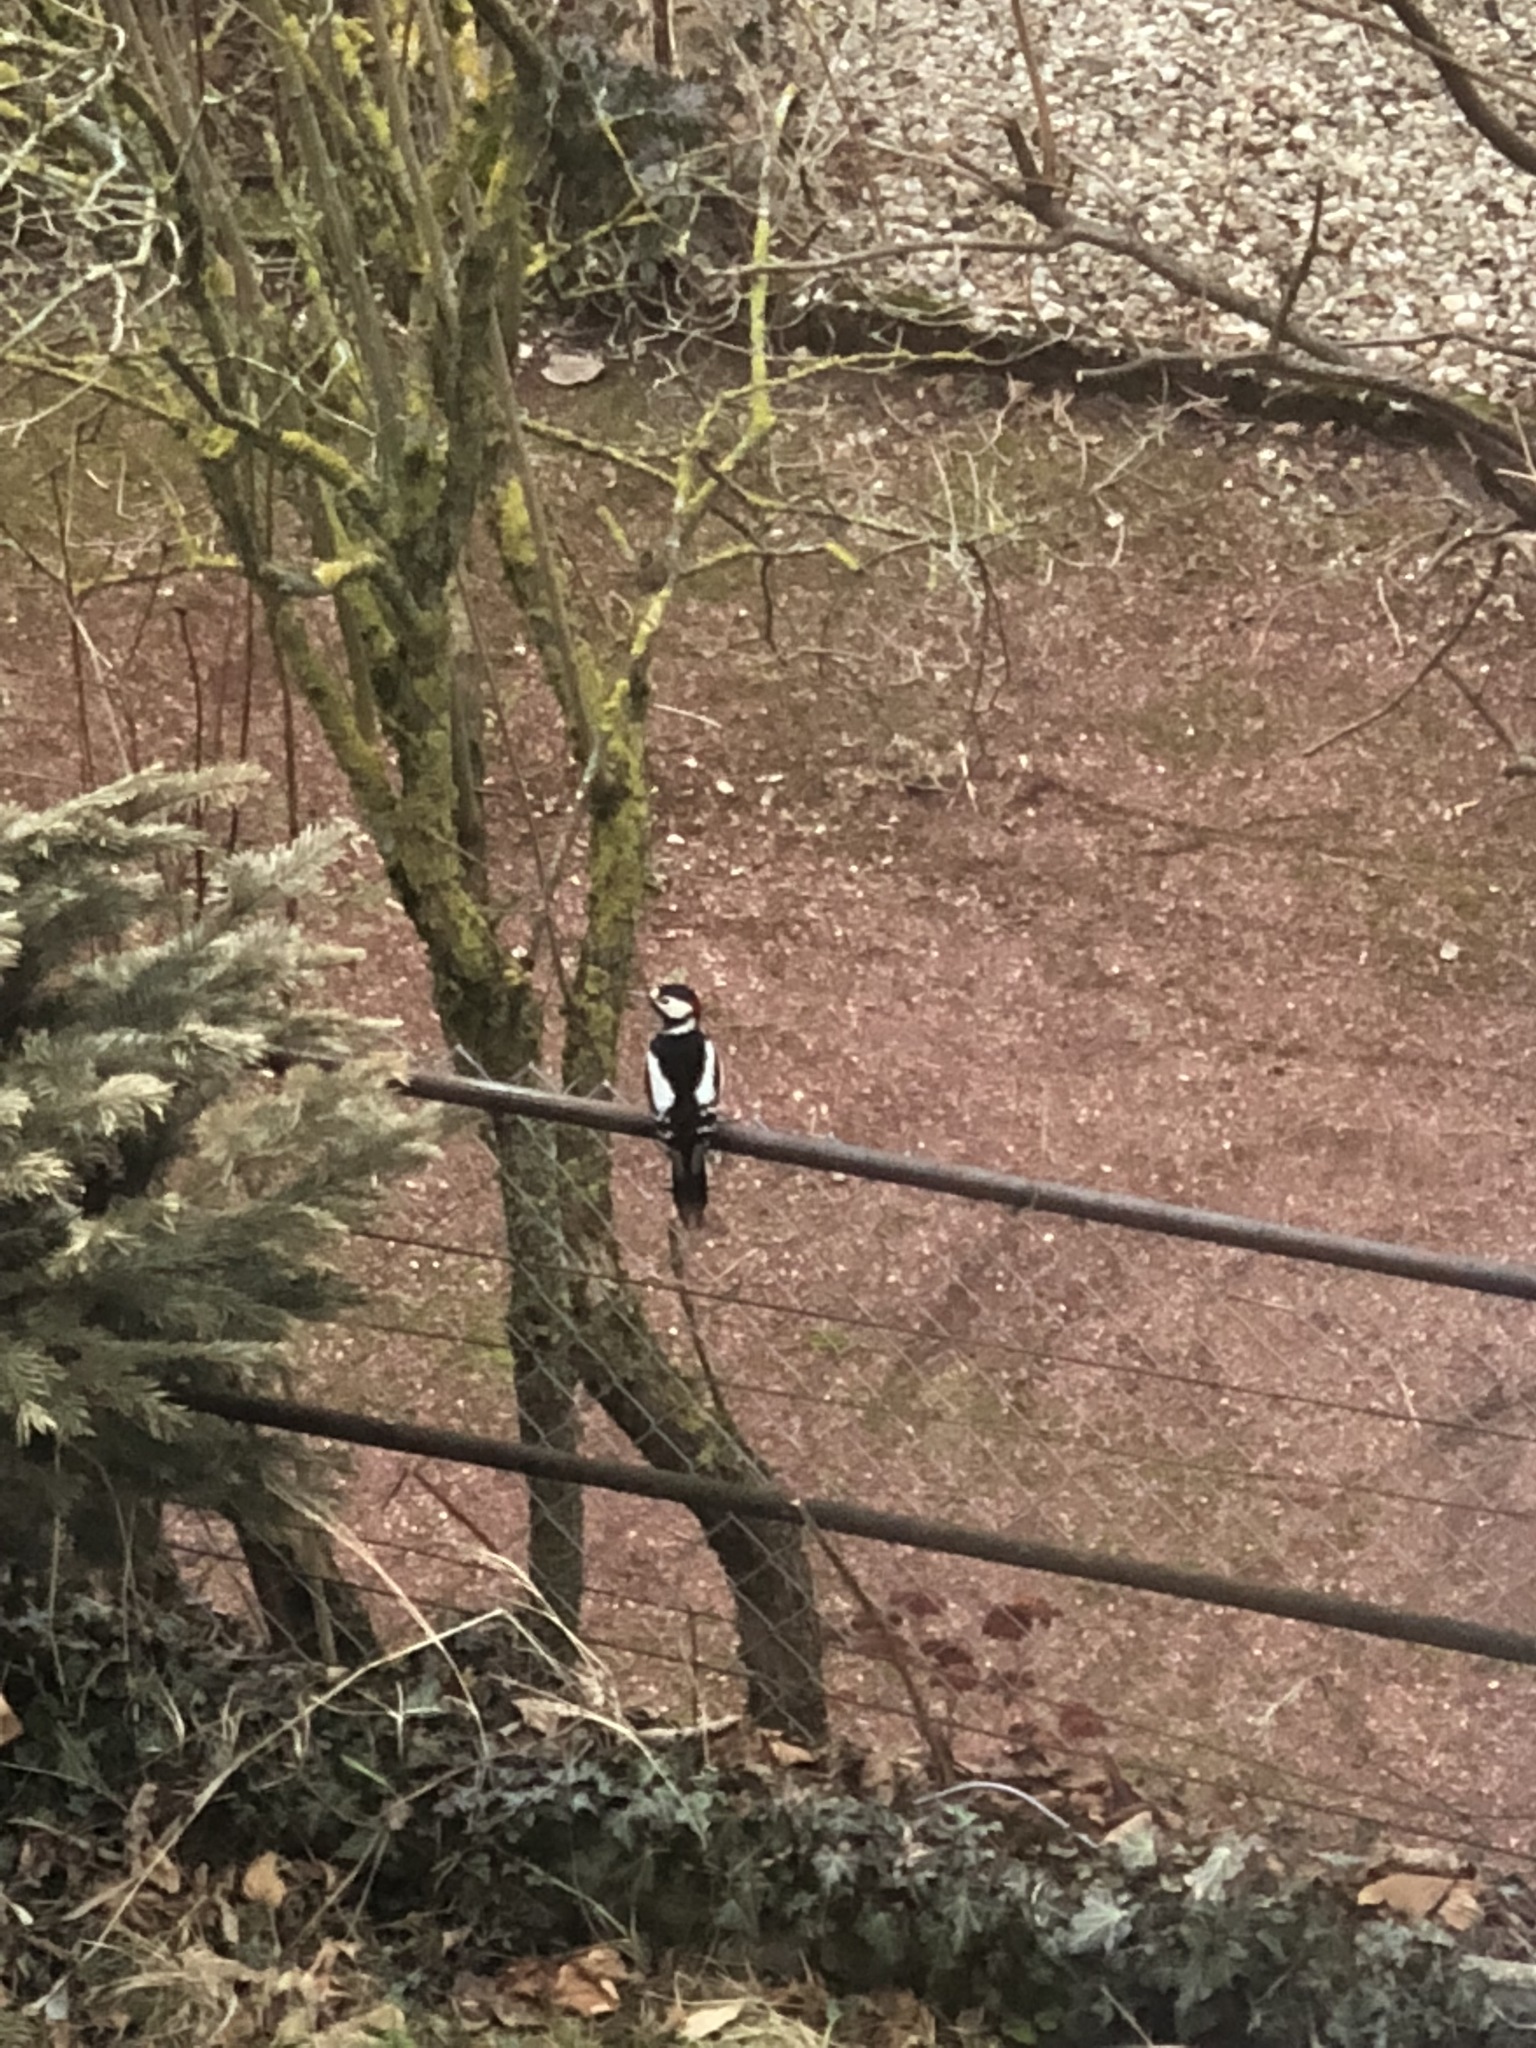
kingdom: Animalia
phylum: Chordata
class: Aves
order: Piciformes
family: Picidae
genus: Dendrocopos
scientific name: Dendrocopos major
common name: Great spotted woodpecker
